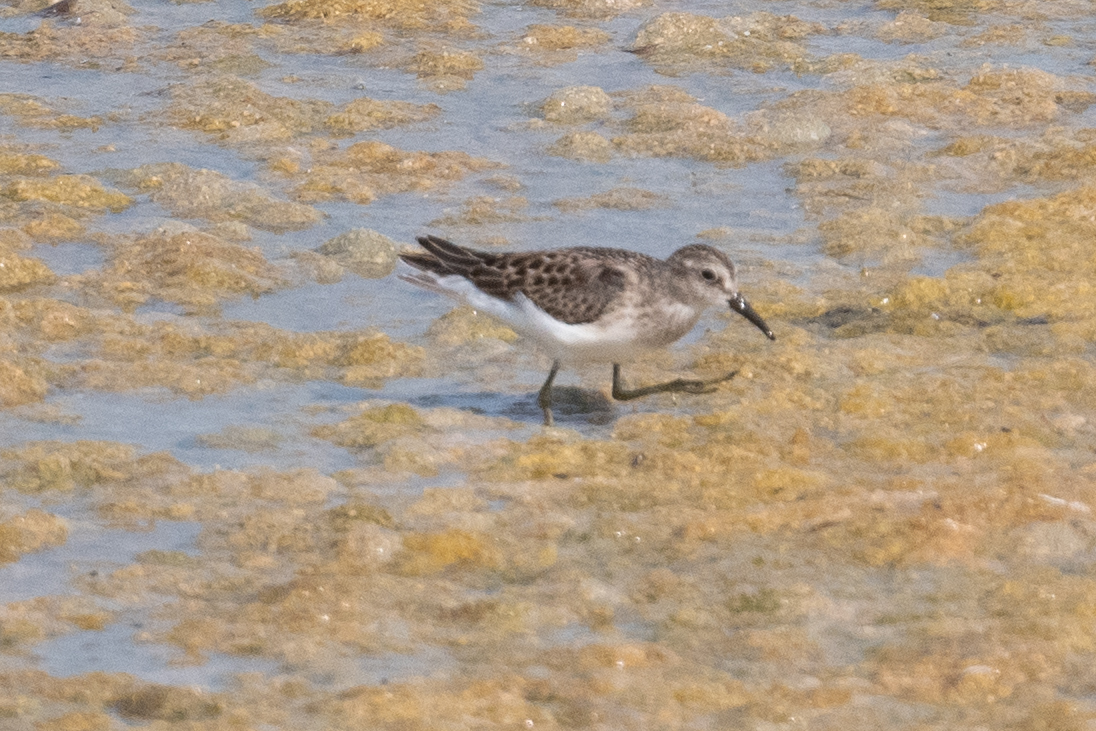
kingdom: Animalia
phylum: Chordata
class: Aves
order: Charadriiformes
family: Scolopacidae
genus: Calidris
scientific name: Calidris minutilla
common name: Least sandpiper
